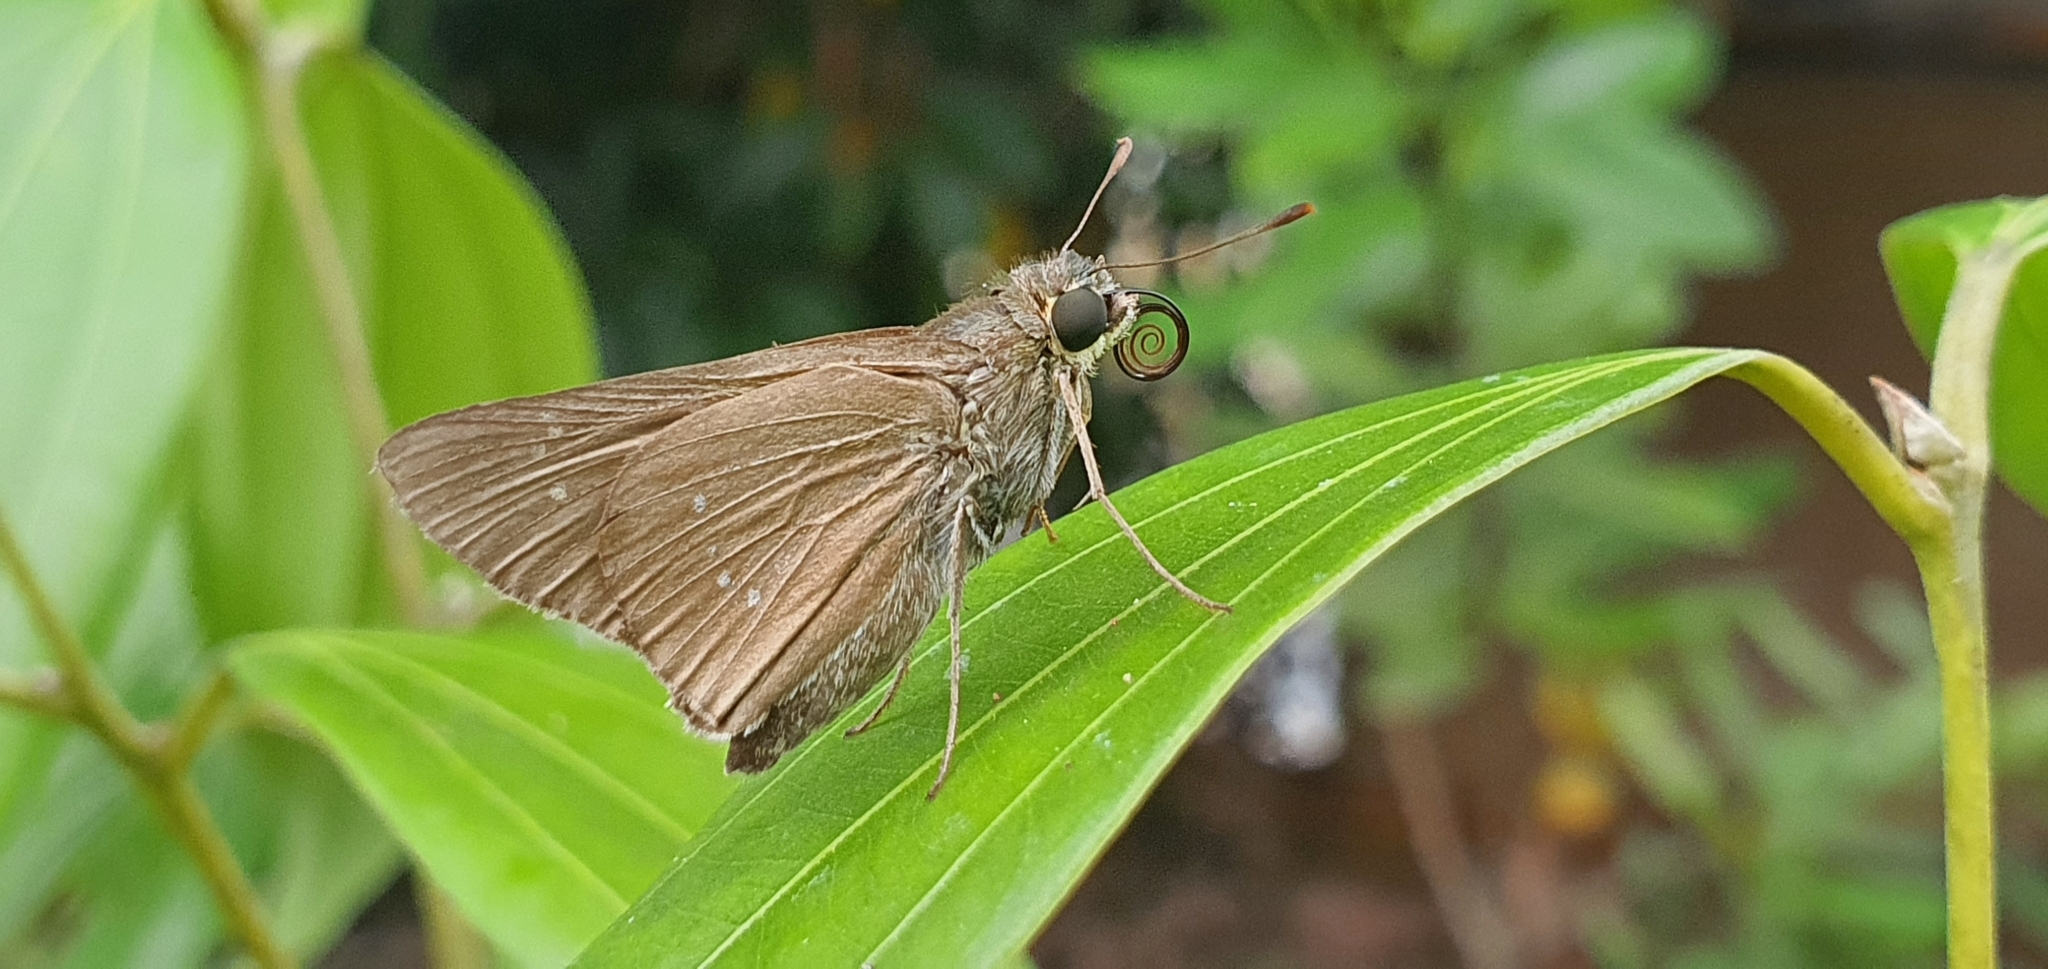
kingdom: Animalia
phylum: Arthropoda
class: Insecta
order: Lepidoptera
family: Hesperiidae
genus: Borbo
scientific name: Borbo cinnara
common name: Formosan swift
